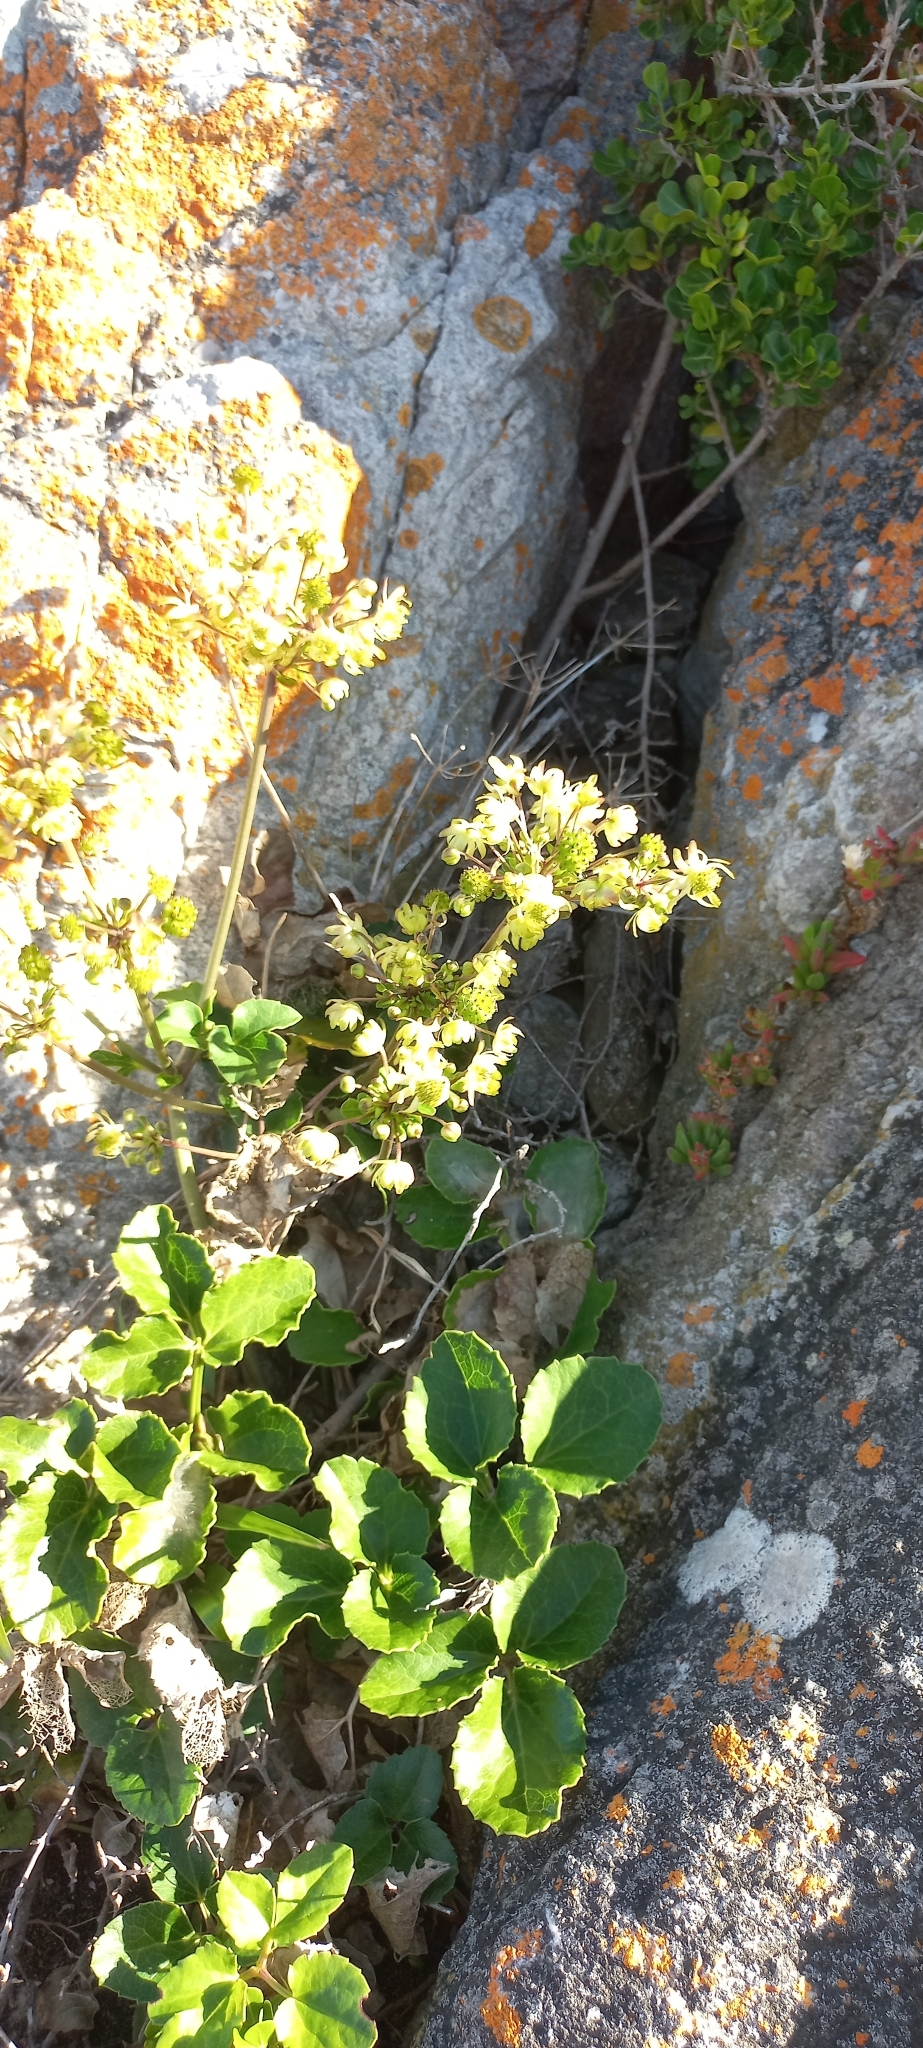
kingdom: Plantae
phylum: Tracheophyta
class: Magnoliopsida
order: Ranunculales
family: Ranunculaceae
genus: Knowltonia
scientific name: Knowltonia vesicatoria
